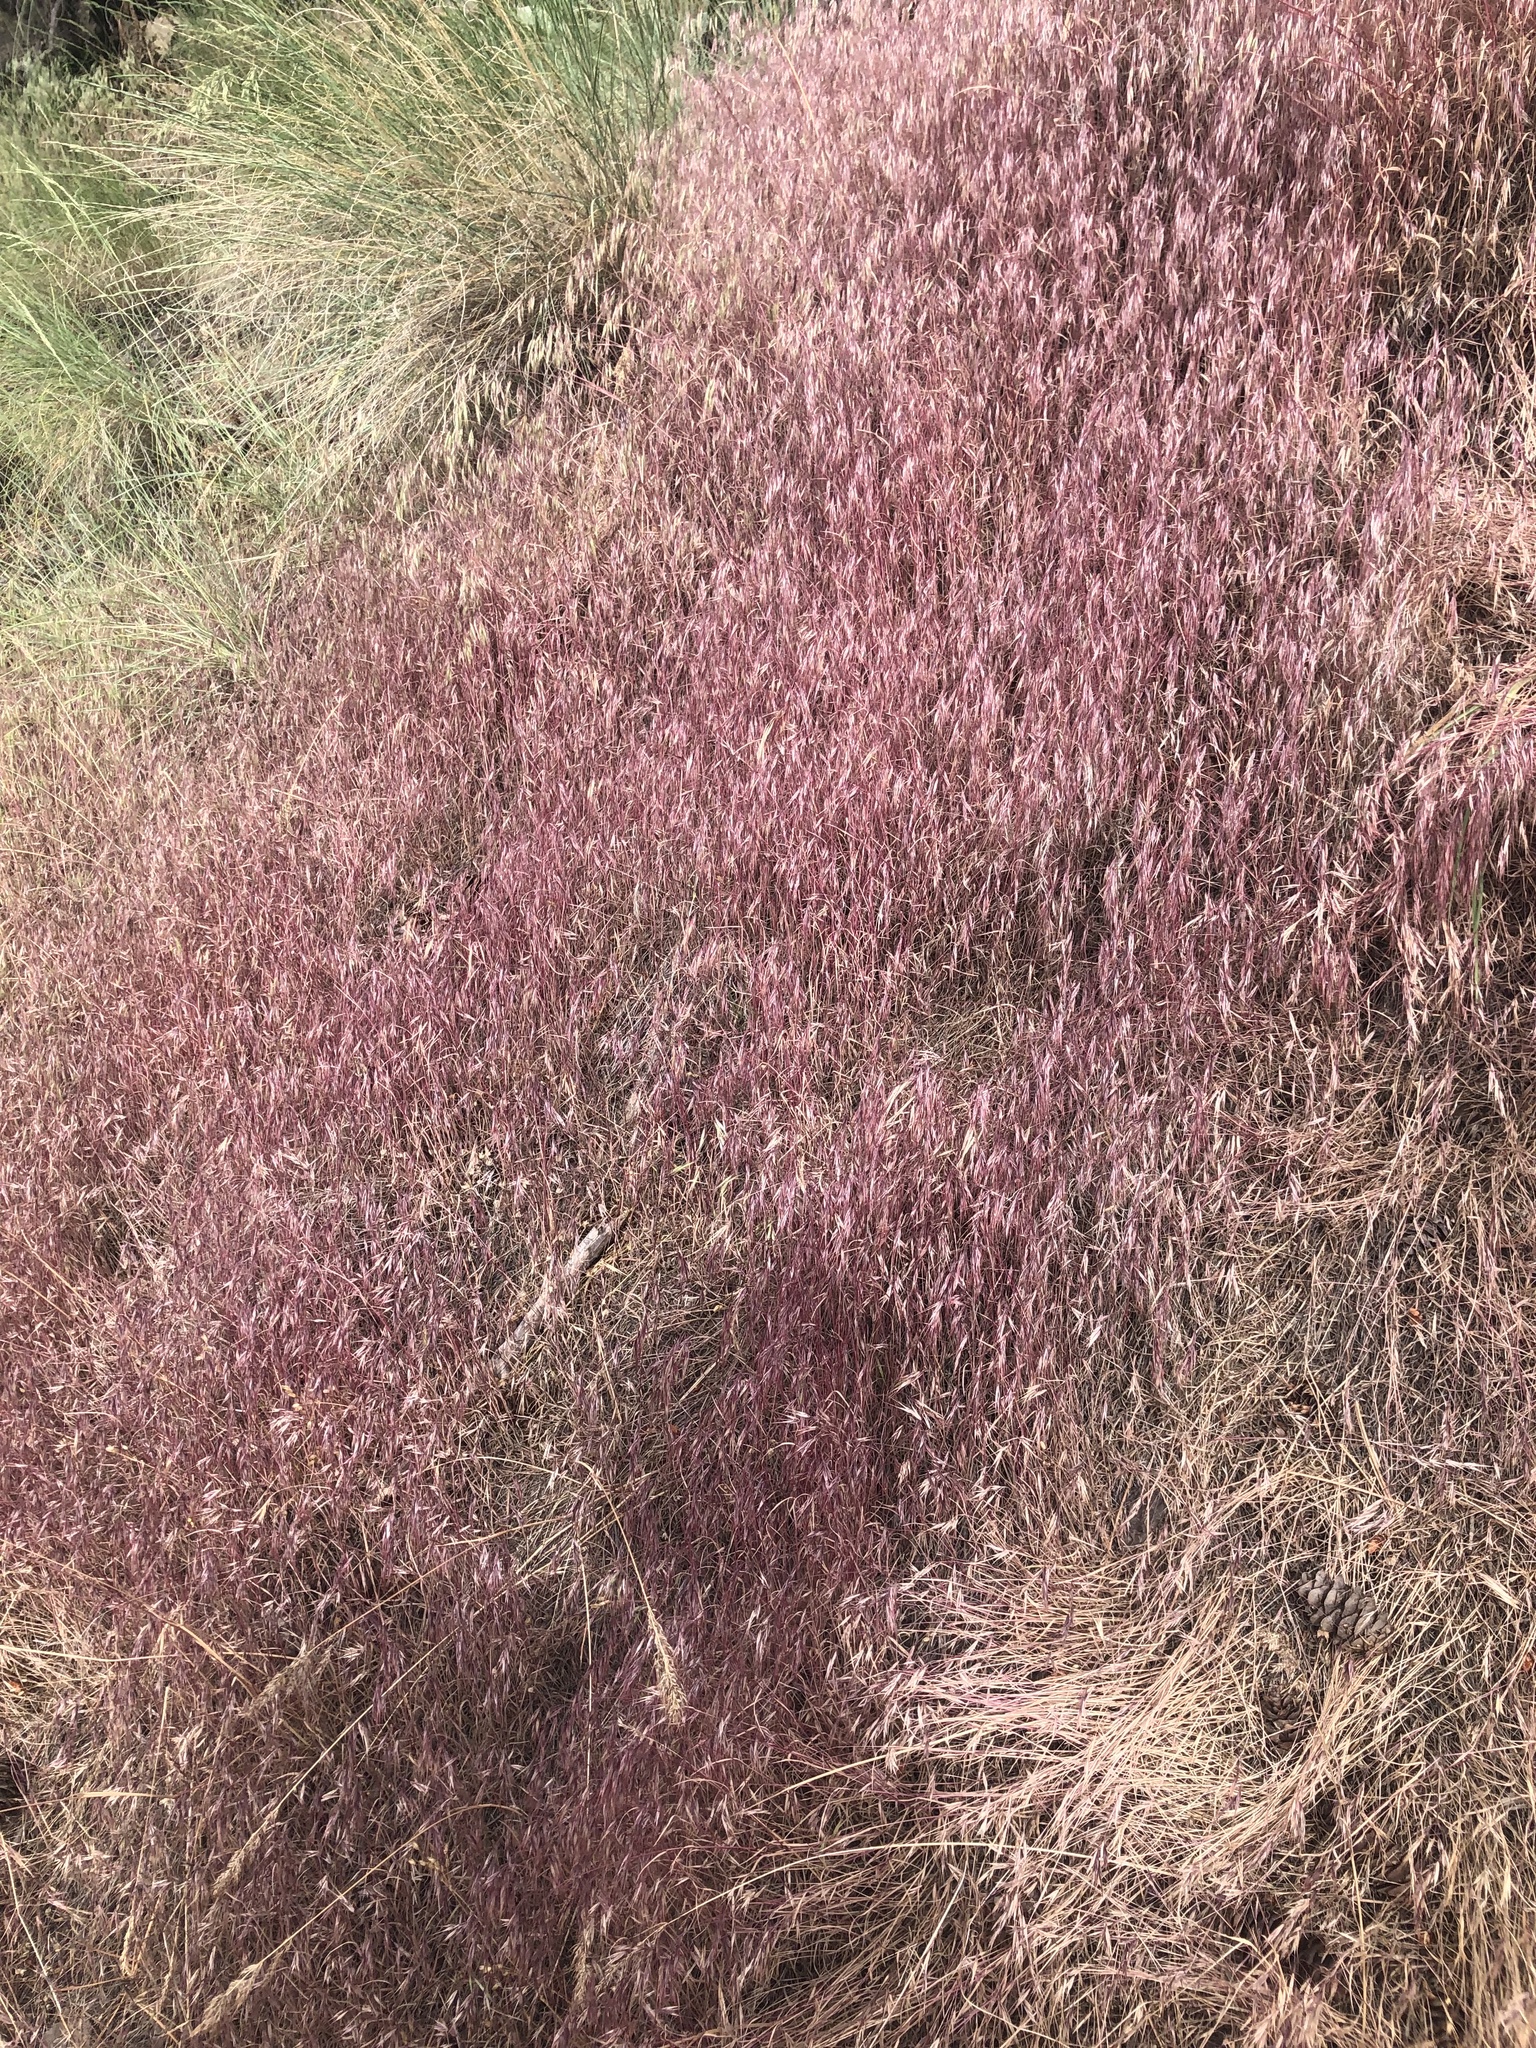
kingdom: Plantae
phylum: Tracheophyta
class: Liliopsida
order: Poales
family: Poaceae
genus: Bromus
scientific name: Bromus tectorum
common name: Cheatgrass
